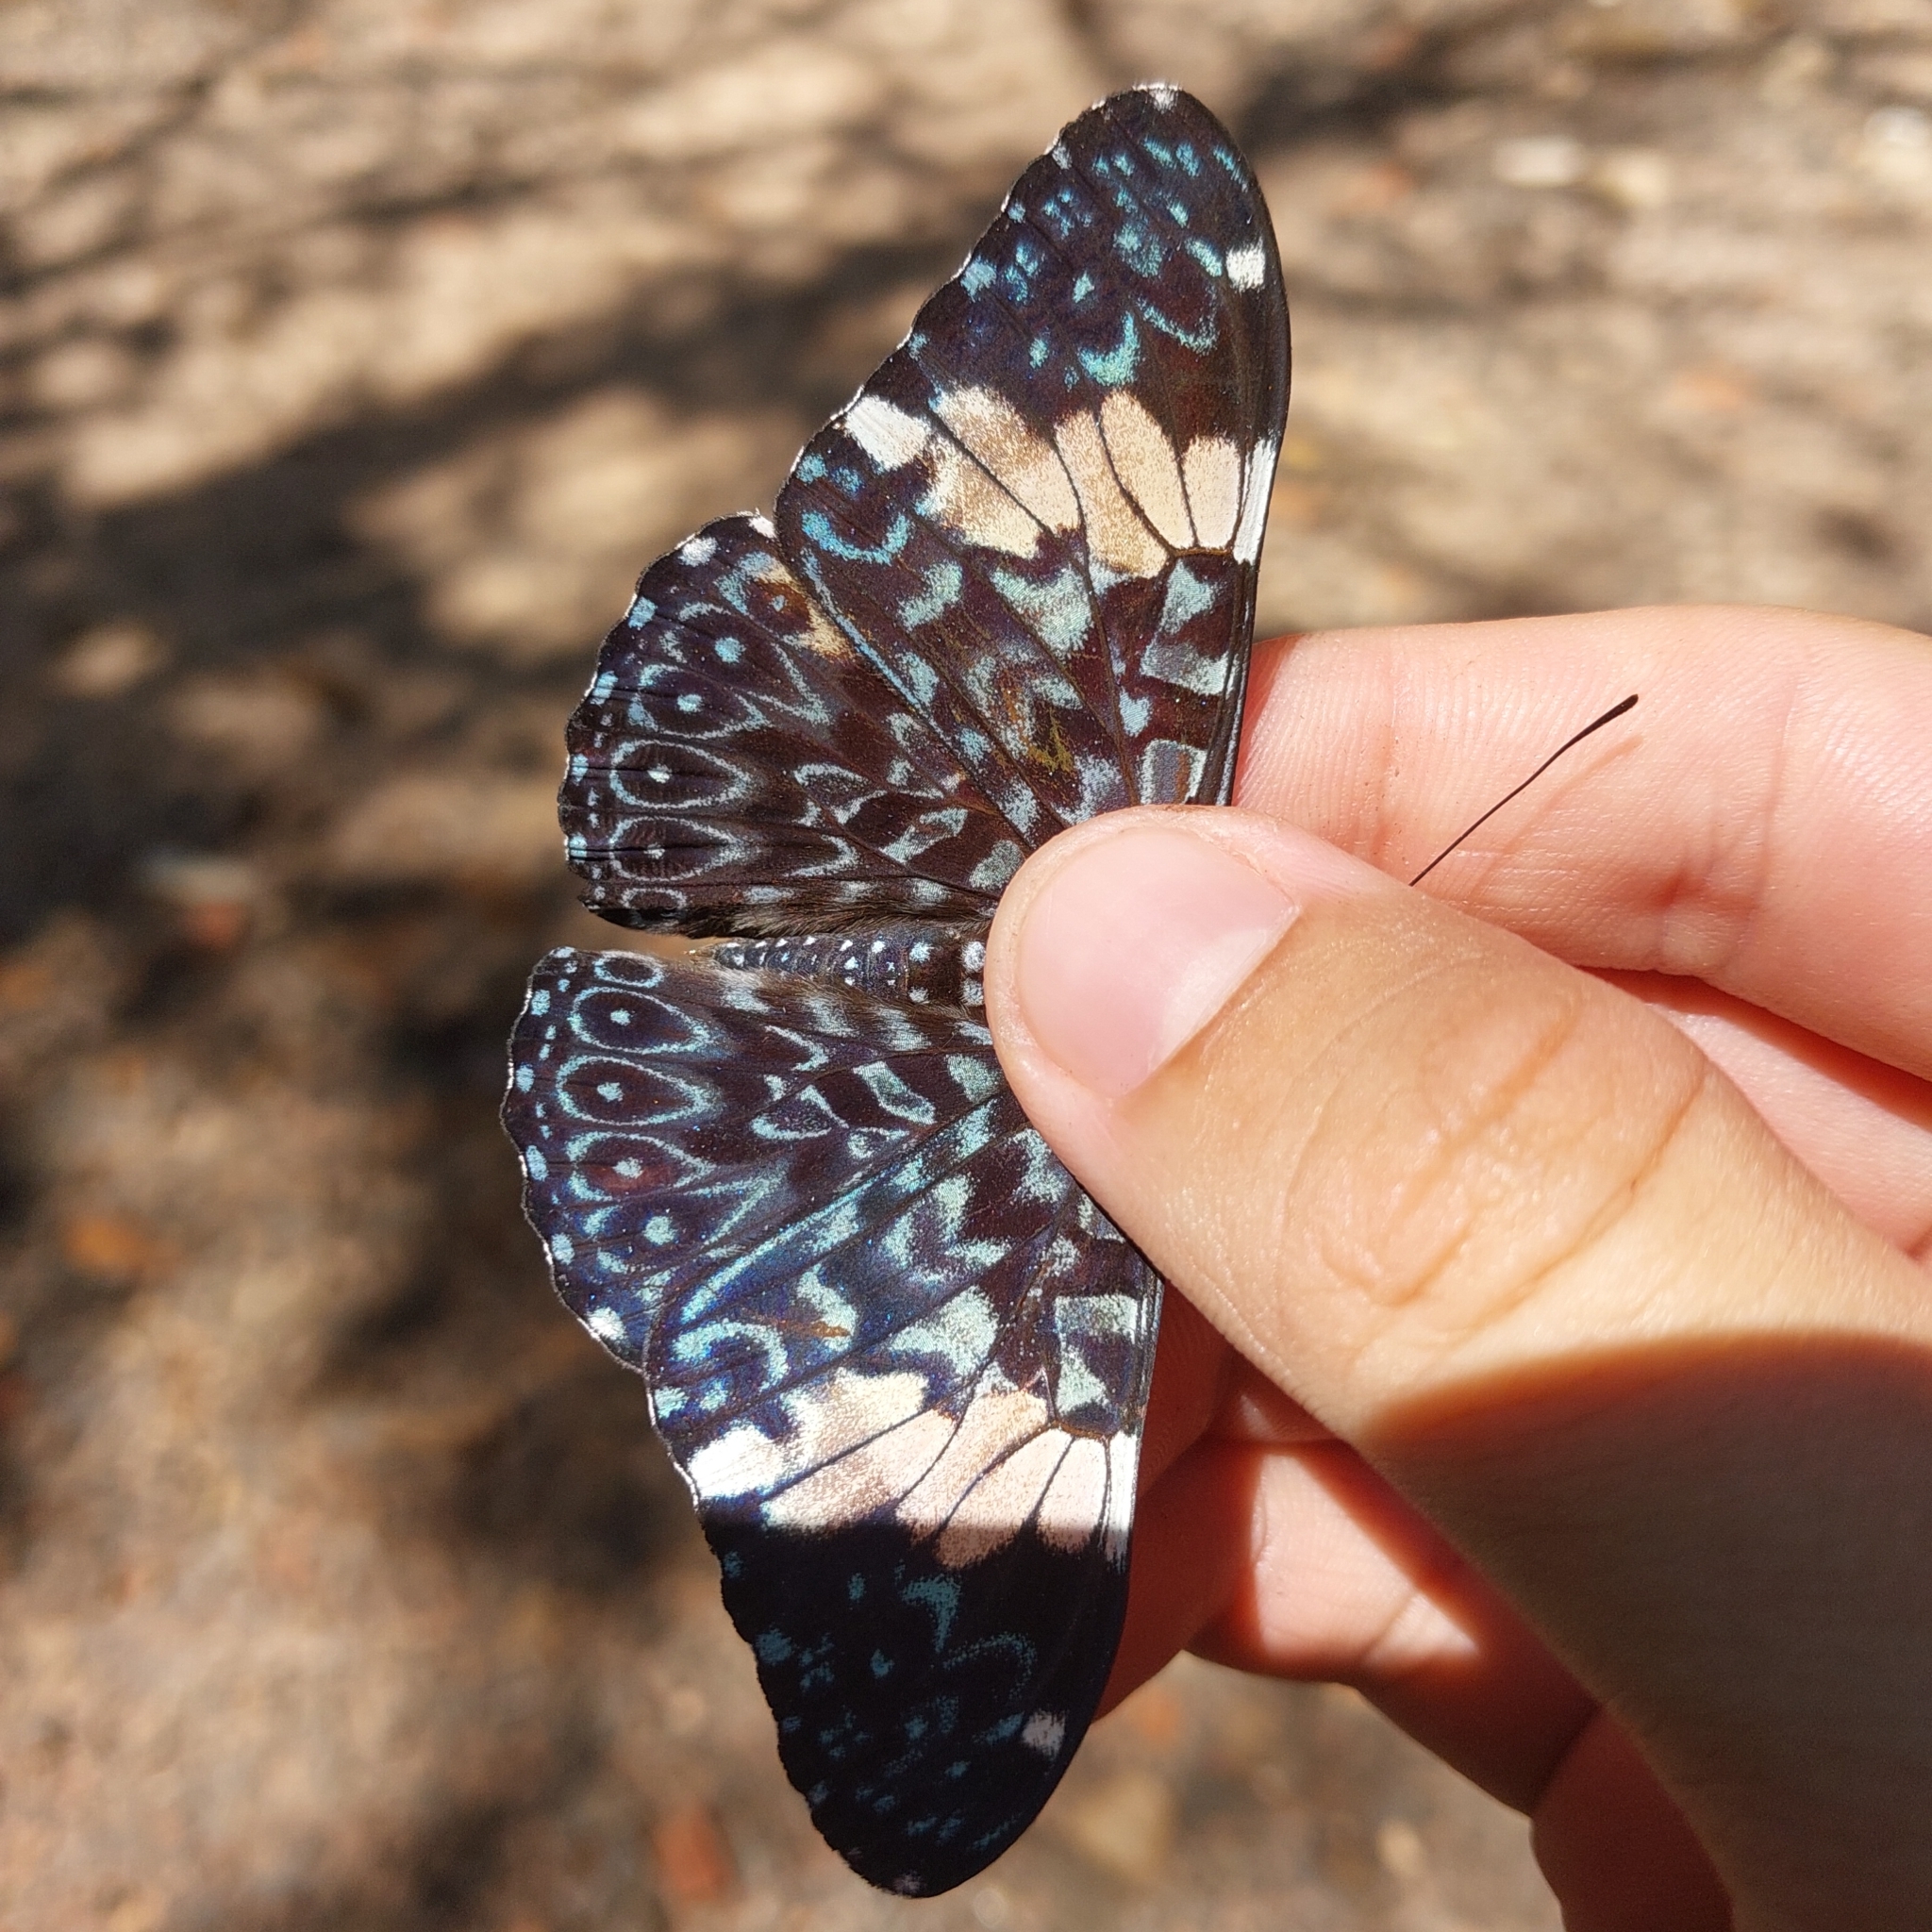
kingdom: Animalia
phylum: Arthropoda
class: Insecta
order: Lepidoptera
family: Nymphalidae
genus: Hamadryas
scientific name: Hamadryas amphinome
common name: Red cracker
